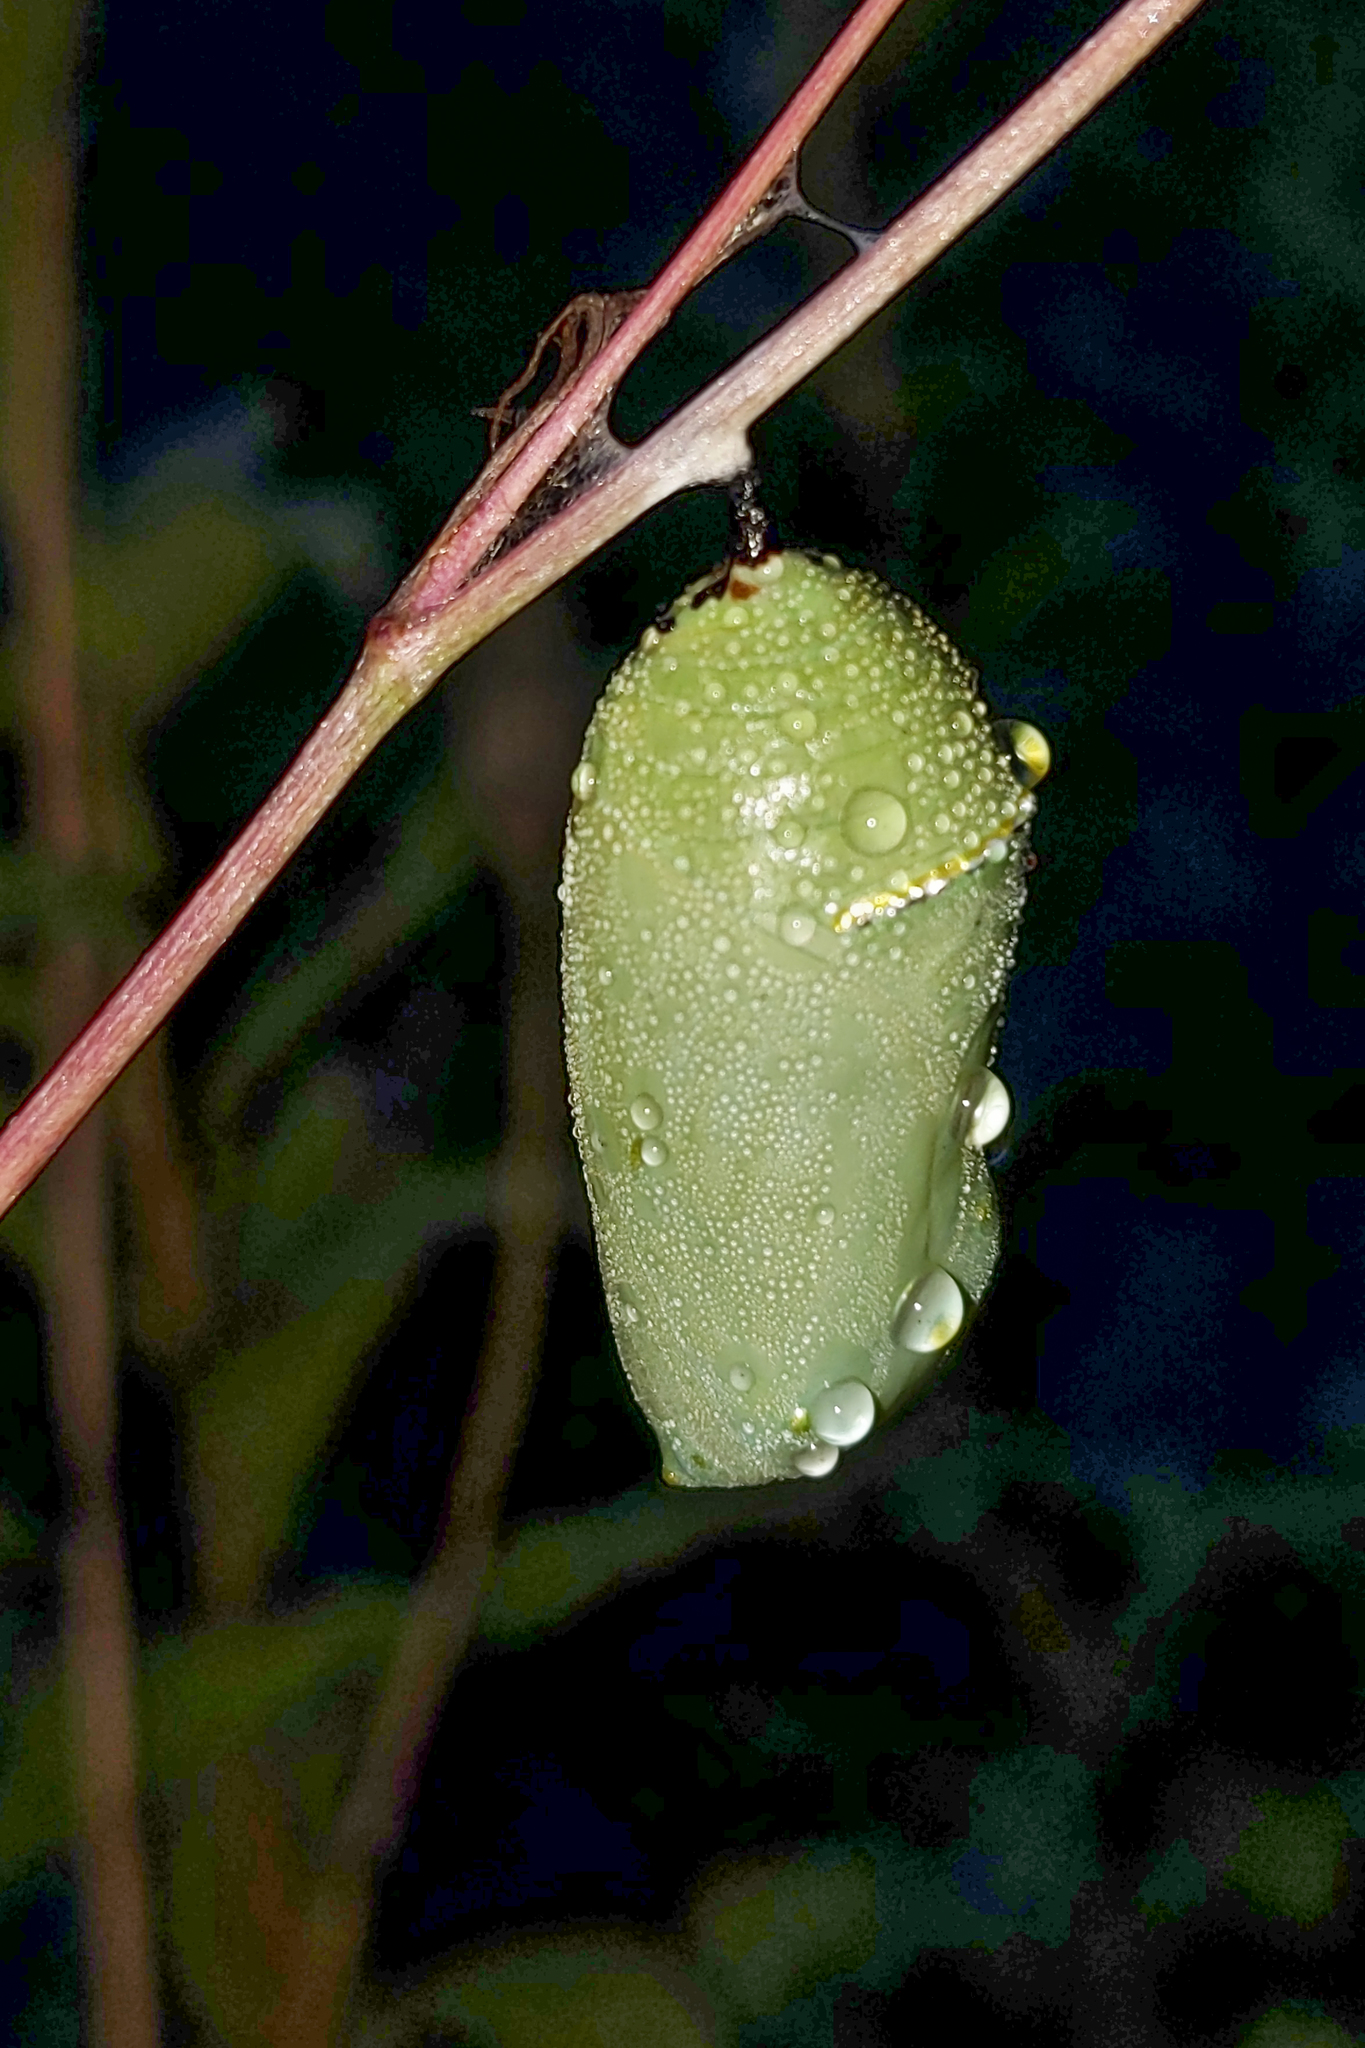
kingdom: Animalia
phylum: Arthropoda
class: Insecta
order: Lepidoptera
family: Nymphalidae
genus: Danaus
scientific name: Danaus plexippus
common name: Monarch
